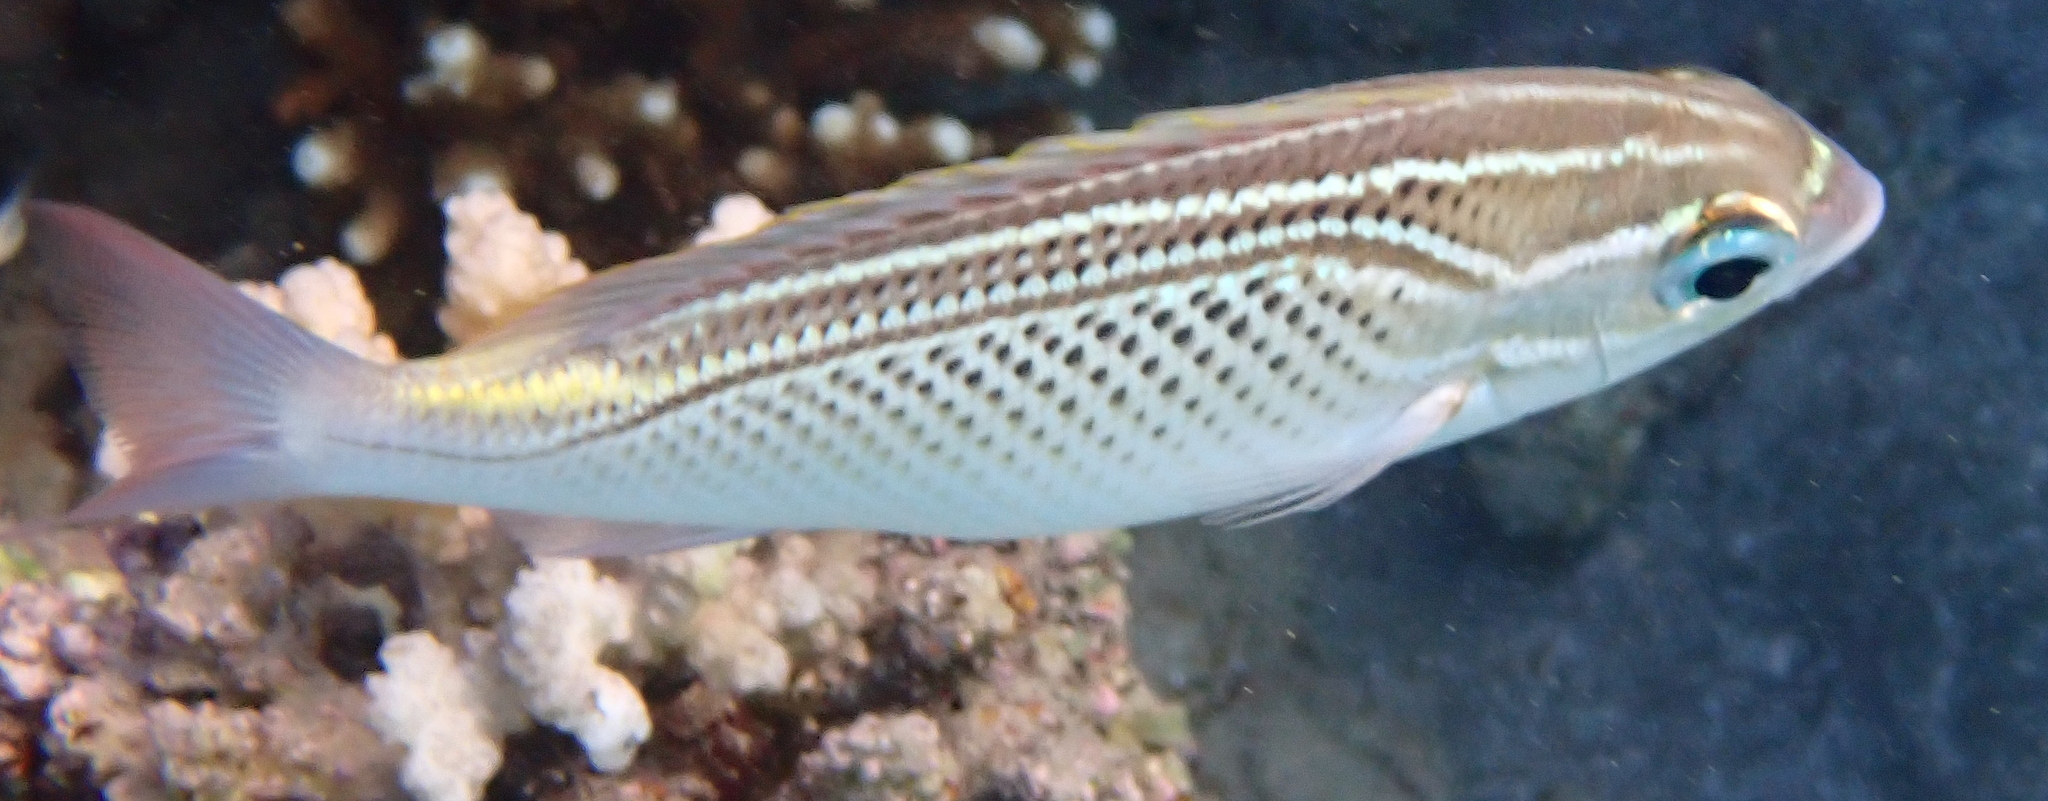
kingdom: Animalia
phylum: Chordata
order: Perciformes
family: Nemipteridae
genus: Scolopsis
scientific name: Scolopsis ghanam
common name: Arabian monocle bream
